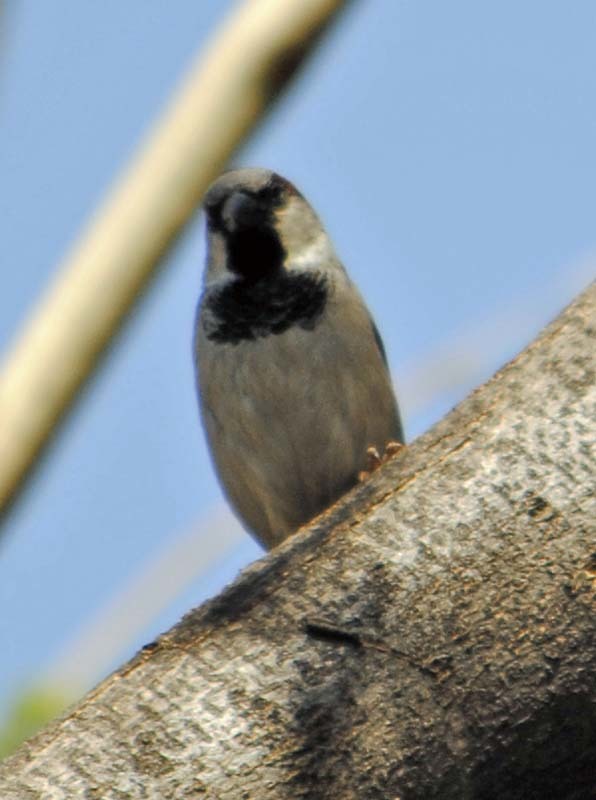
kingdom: Animalia
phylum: Chordata
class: Aves
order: Passeriformes
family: Passeridae
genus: Passer
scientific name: Passer domesticus
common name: House sparrow
